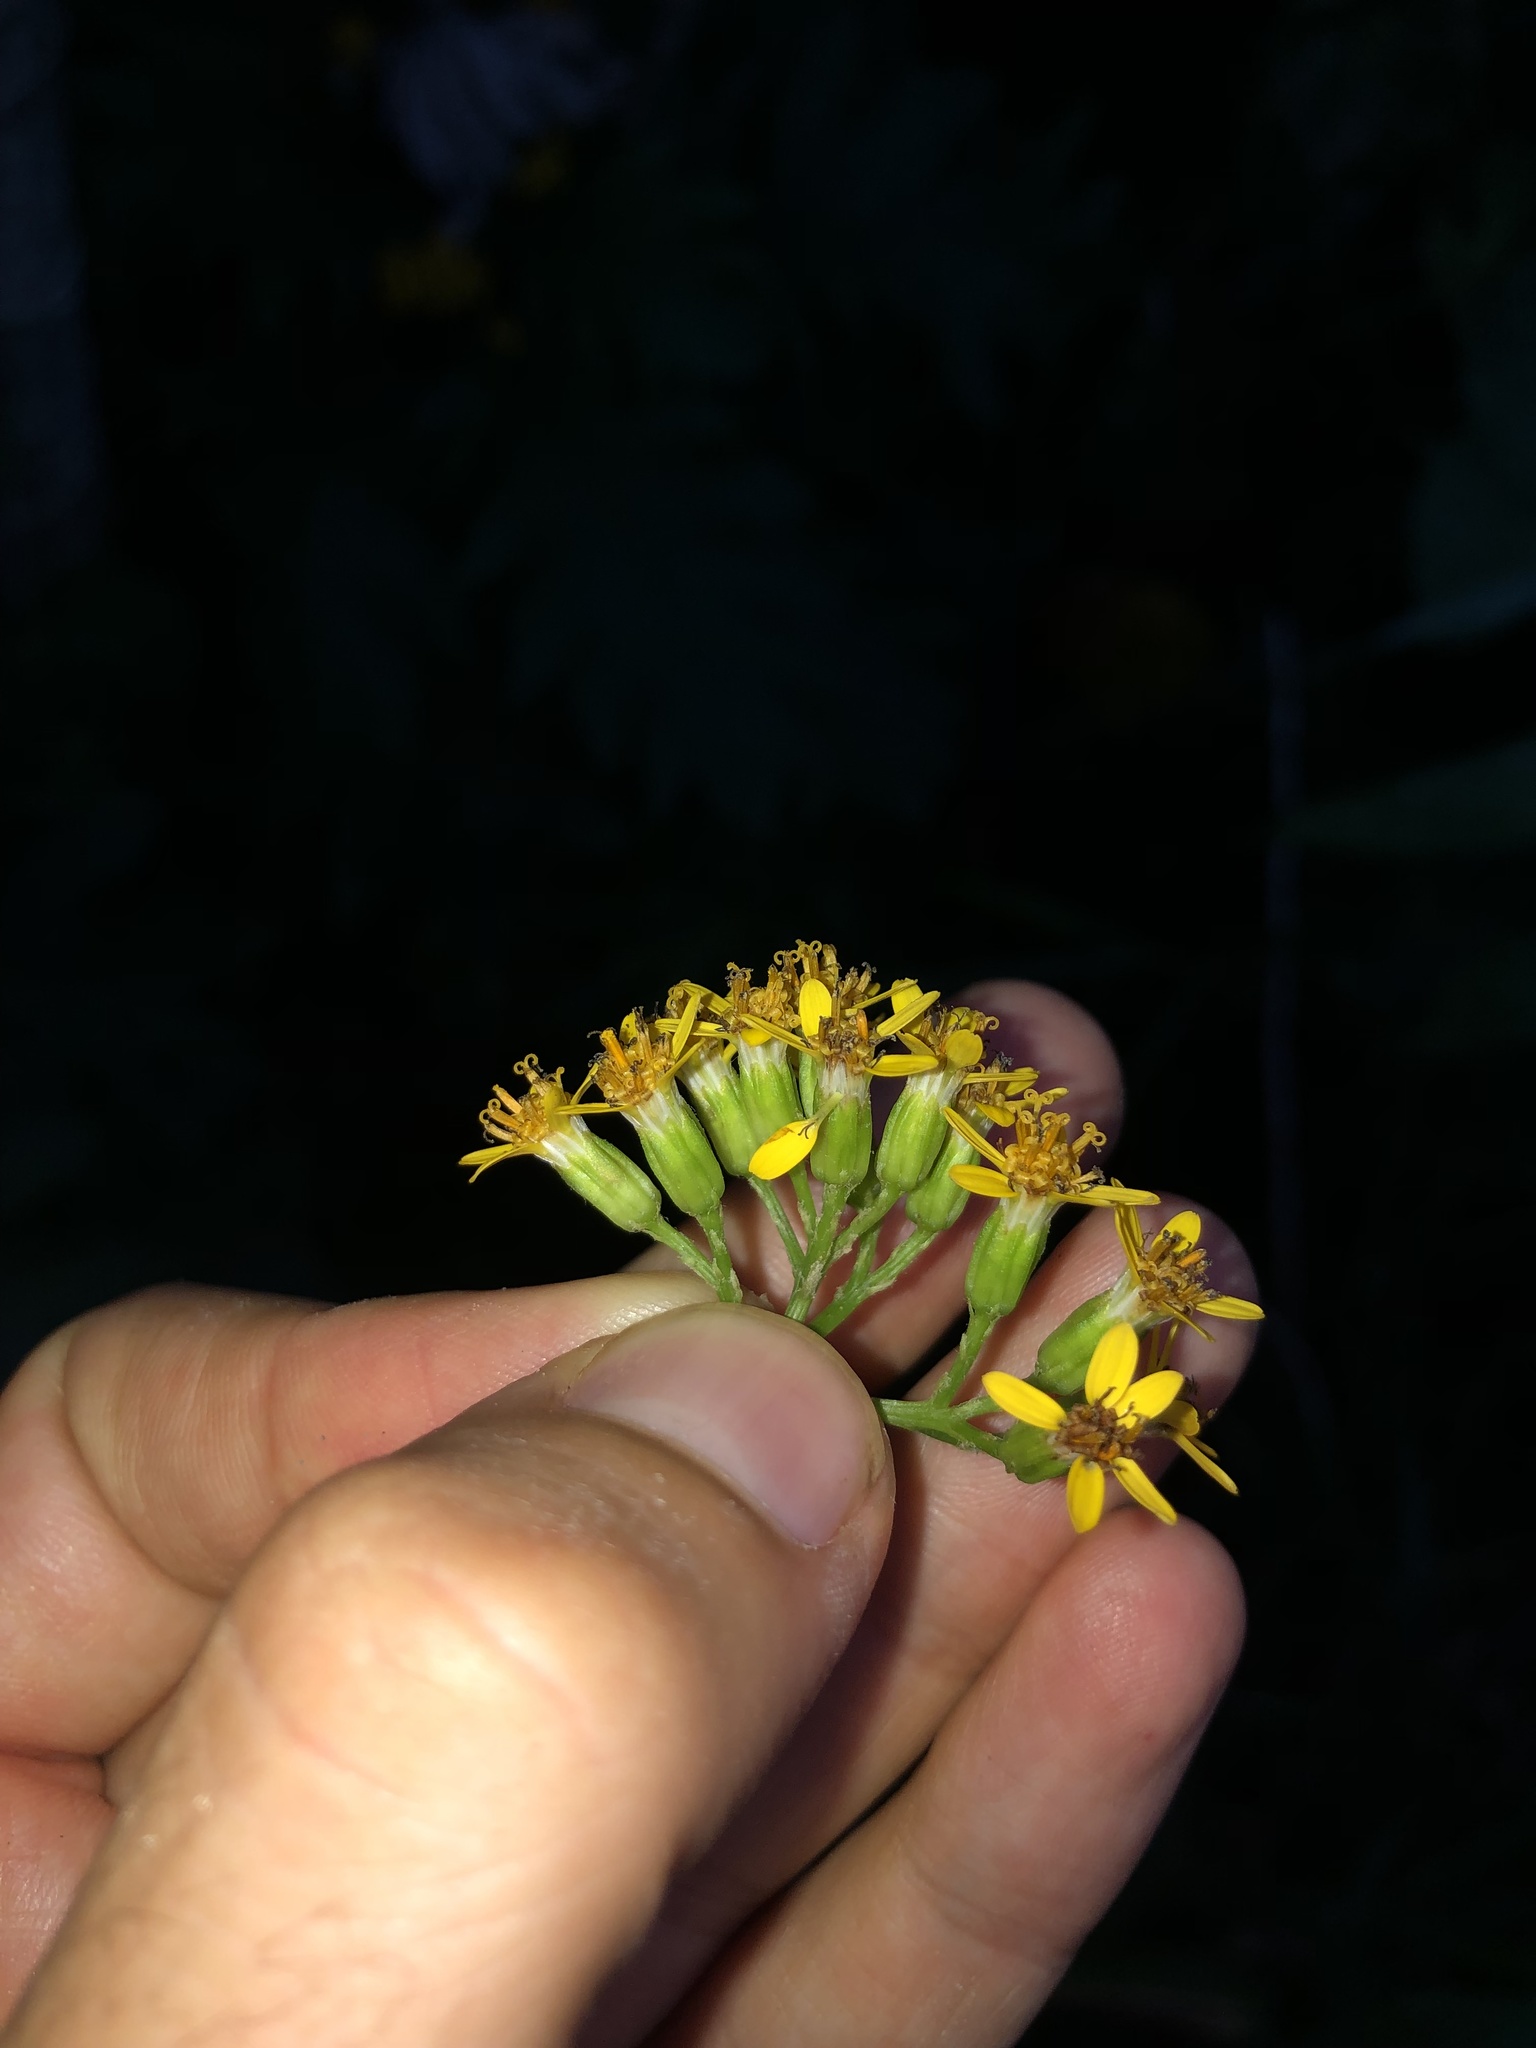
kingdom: Plantae
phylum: Tracheophyta
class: Magnoliopsida
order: Asterales
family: Asteraceae
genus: Telanthophora
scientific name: Telanthophora grandifolia
